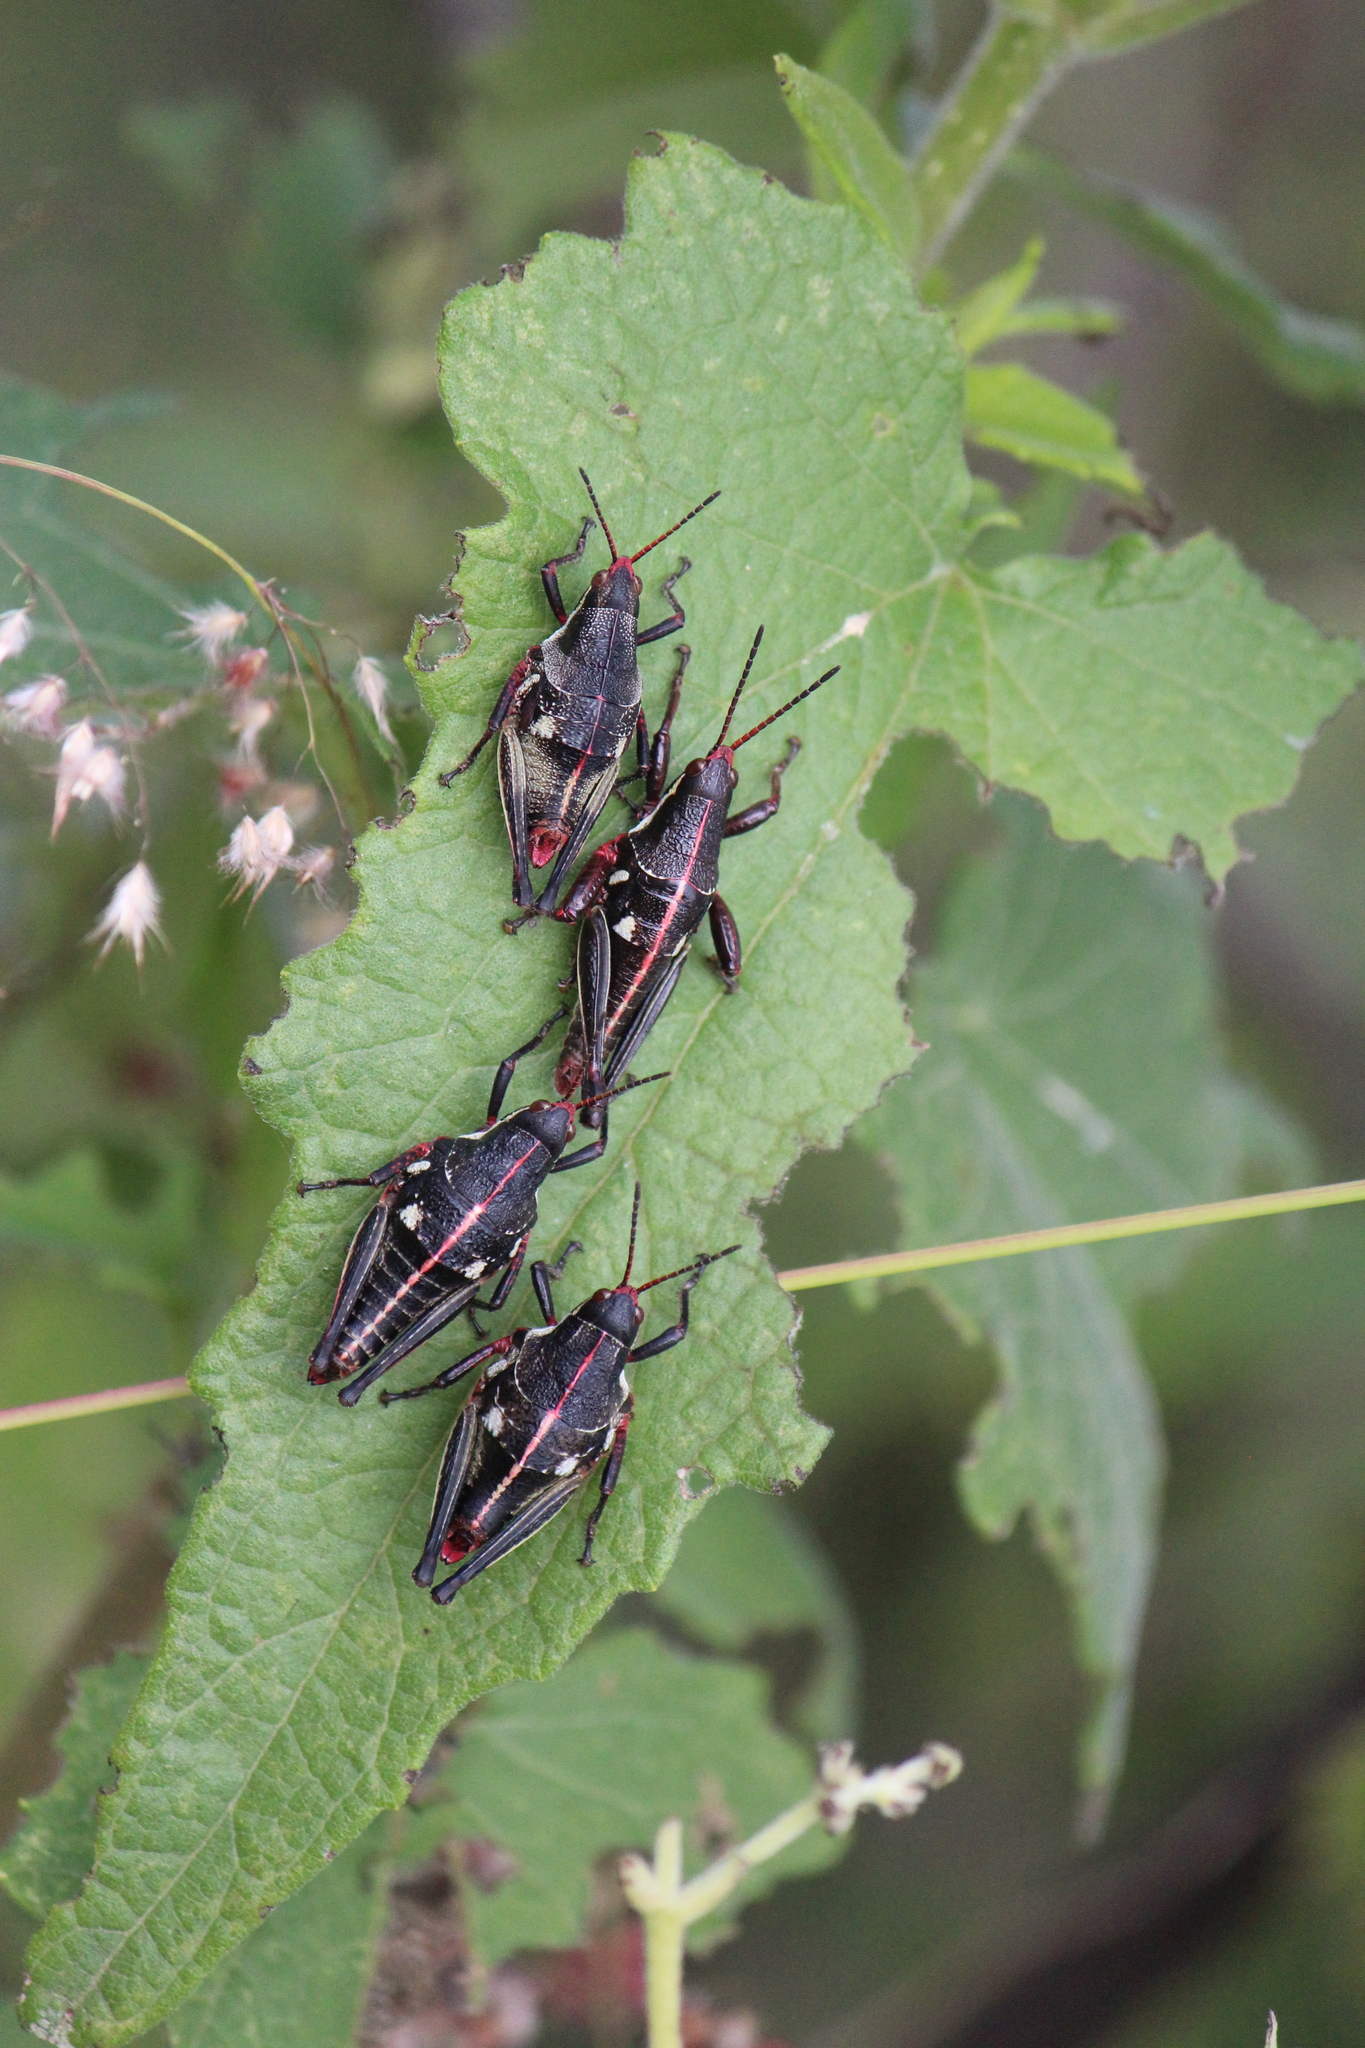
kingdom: Animalia
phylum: Arthropoda
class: Insecta
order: Orthoptera
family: Pyrgomorphidae
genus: Sphenarium
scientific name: Sphenarium purpurascens
